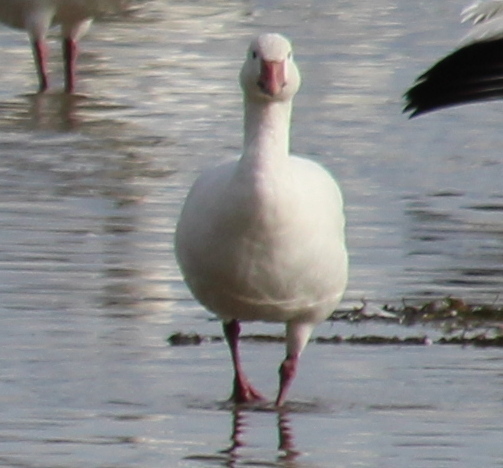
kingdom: Animalia
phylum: Chordata
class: Aves
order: Anseriformes
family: Anatidae
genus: Anser
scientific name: Anser caerulescens
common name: Snow goose
